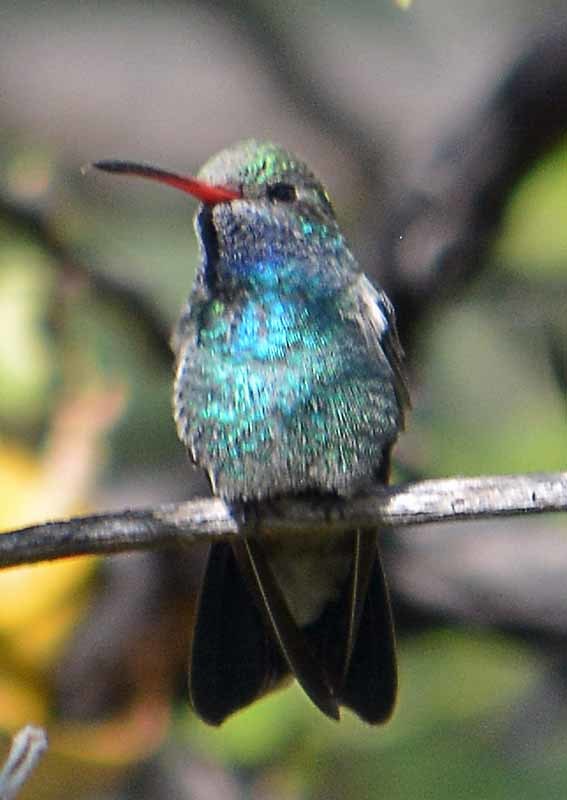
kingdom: Animalia
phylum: Chordata
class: Aves
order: Apodiformes
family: Trochilidae
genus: Cynanthus
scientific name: Cynanthus latirostris
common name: Broad-billed hummingbird
